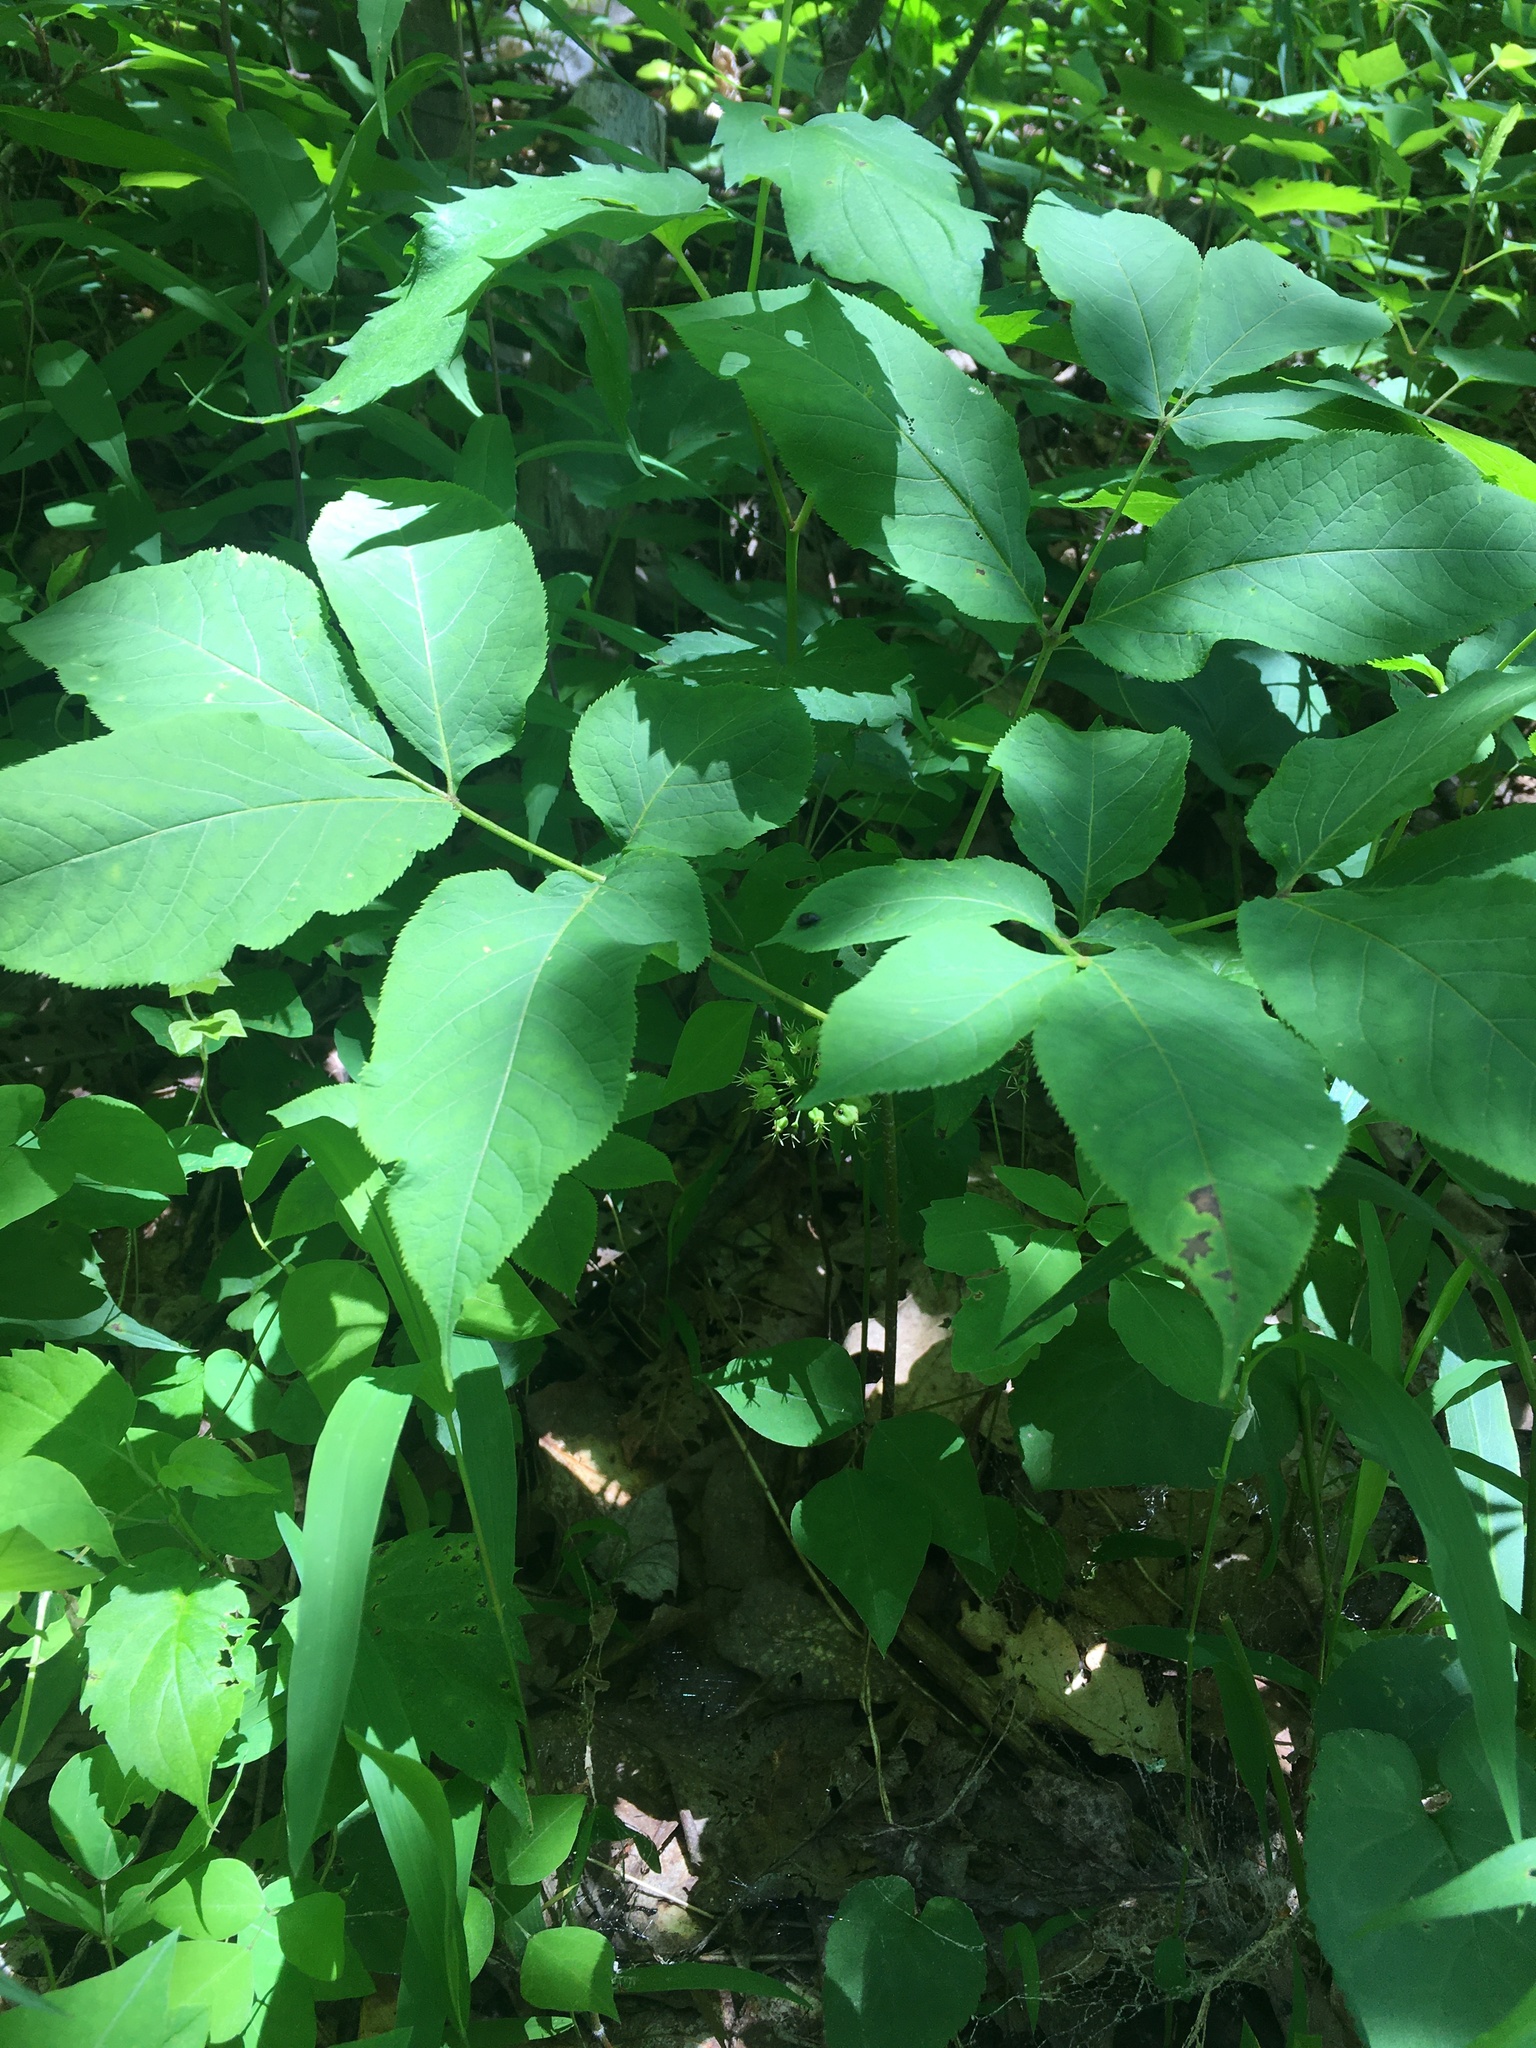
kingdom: Plantae
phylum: Tracheophyta
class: Magnoliopsida
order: Apiales
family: Araliaceae
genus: Aralia
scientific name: Aralia nudicaulis
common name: Wild sarsaparilla
